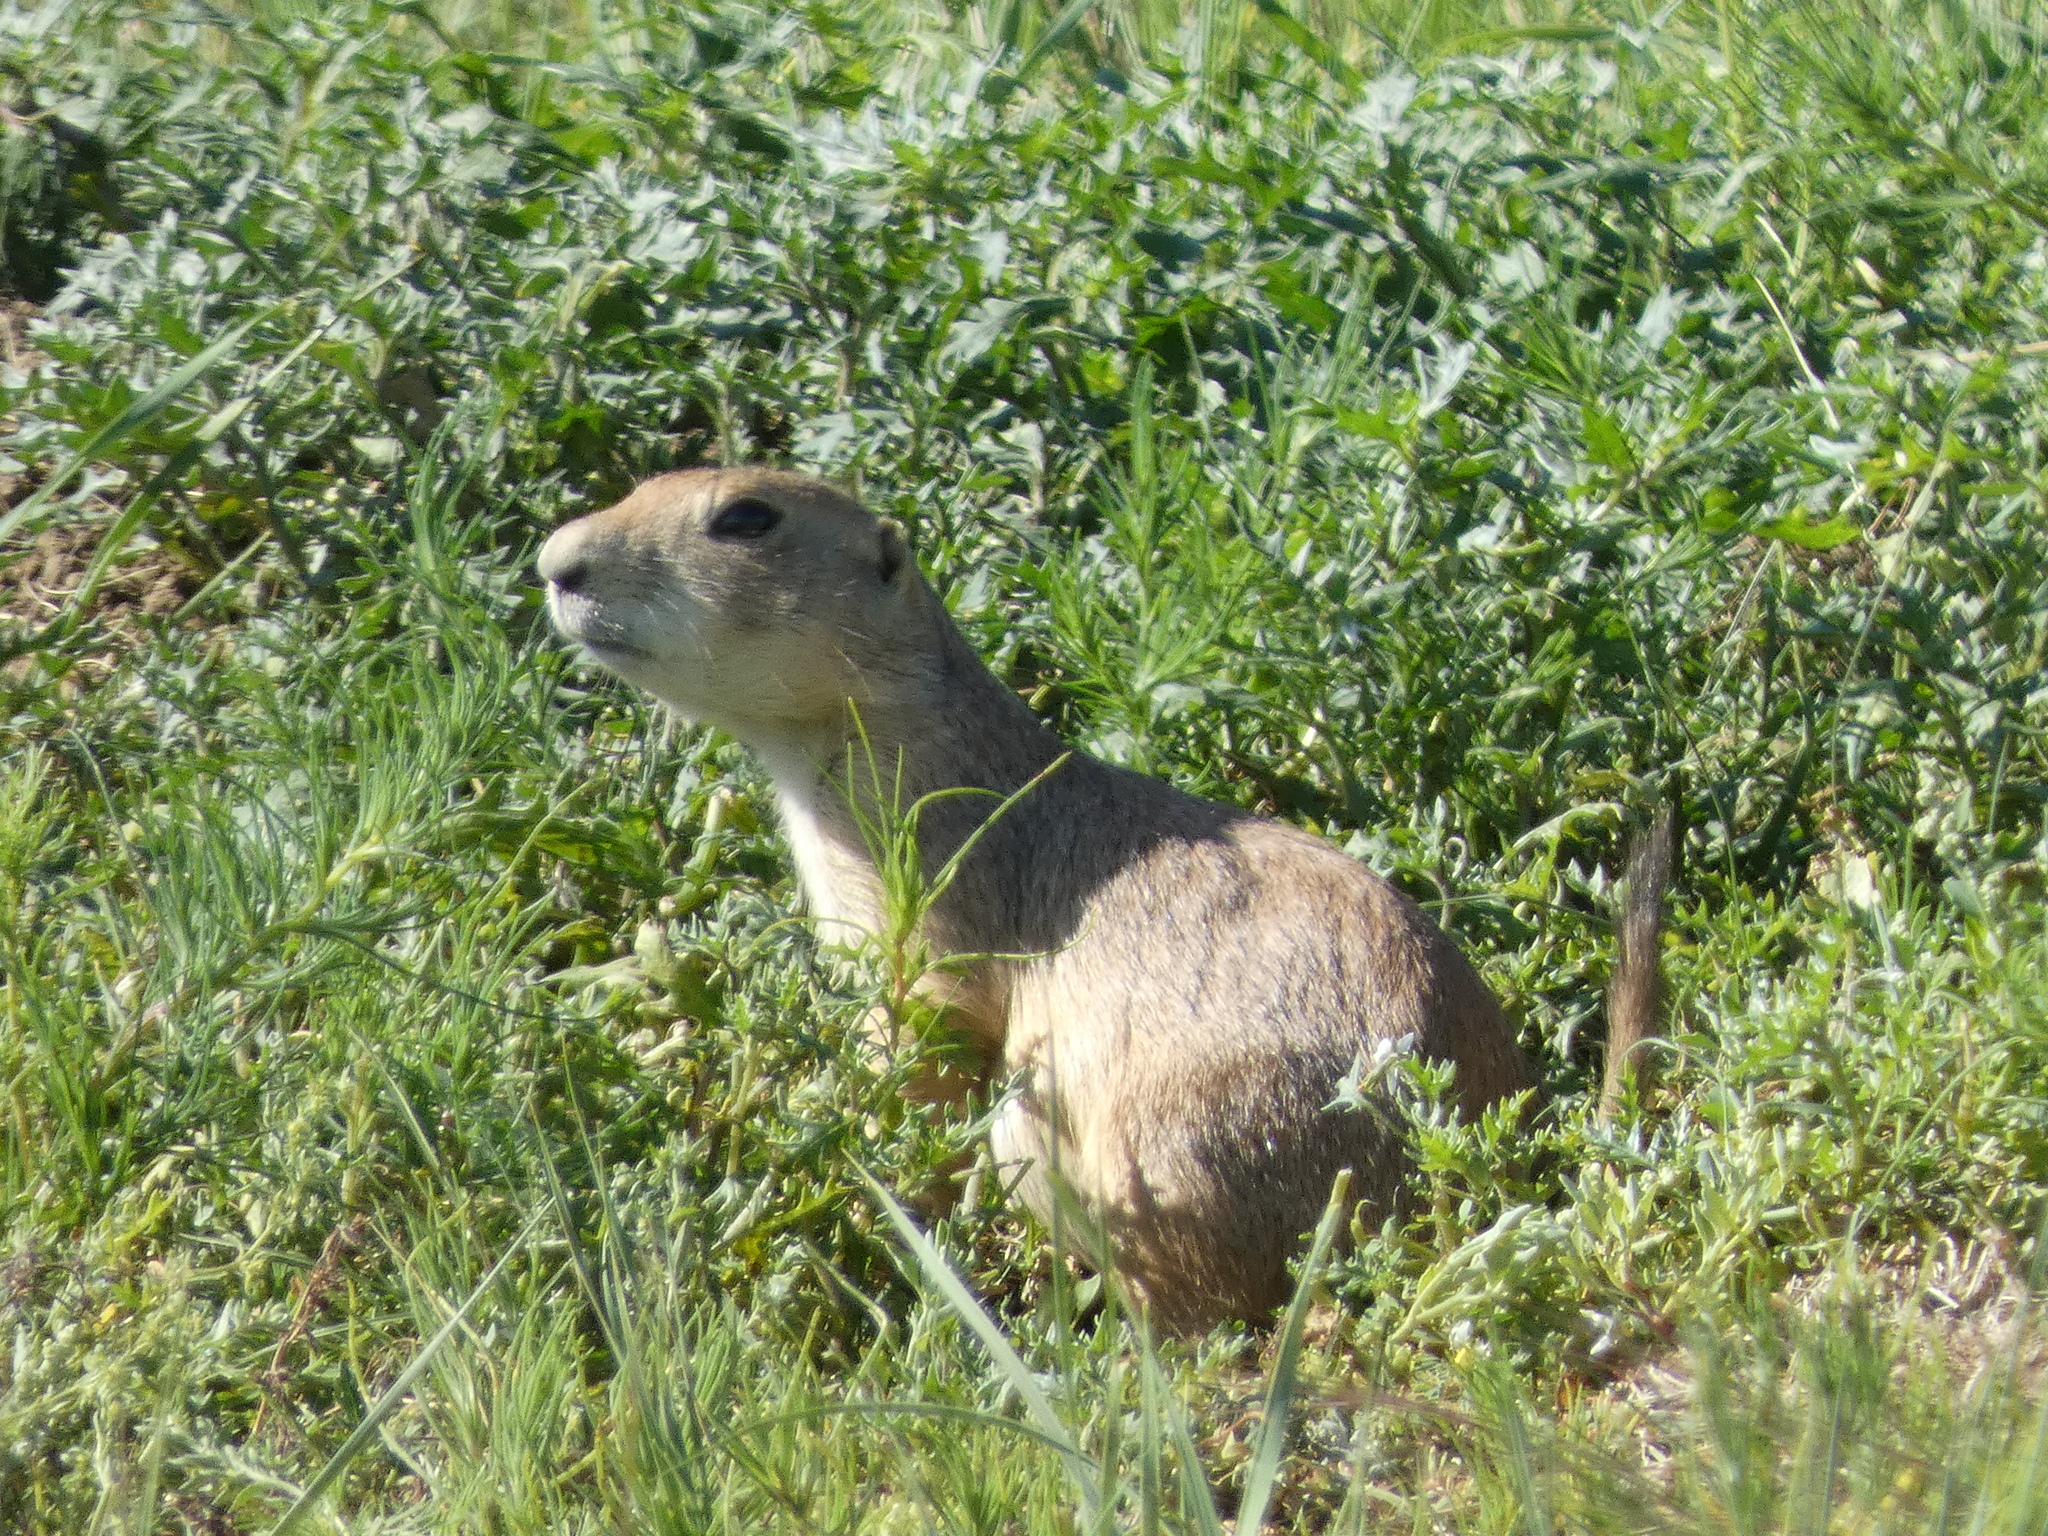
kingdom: Animalia
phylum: Chordata
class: Mammalia
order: Rodentia
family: Sciuridae
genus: Cynomys
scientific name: Cynomys ludovicianus
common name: Black-tailed prairie dog
